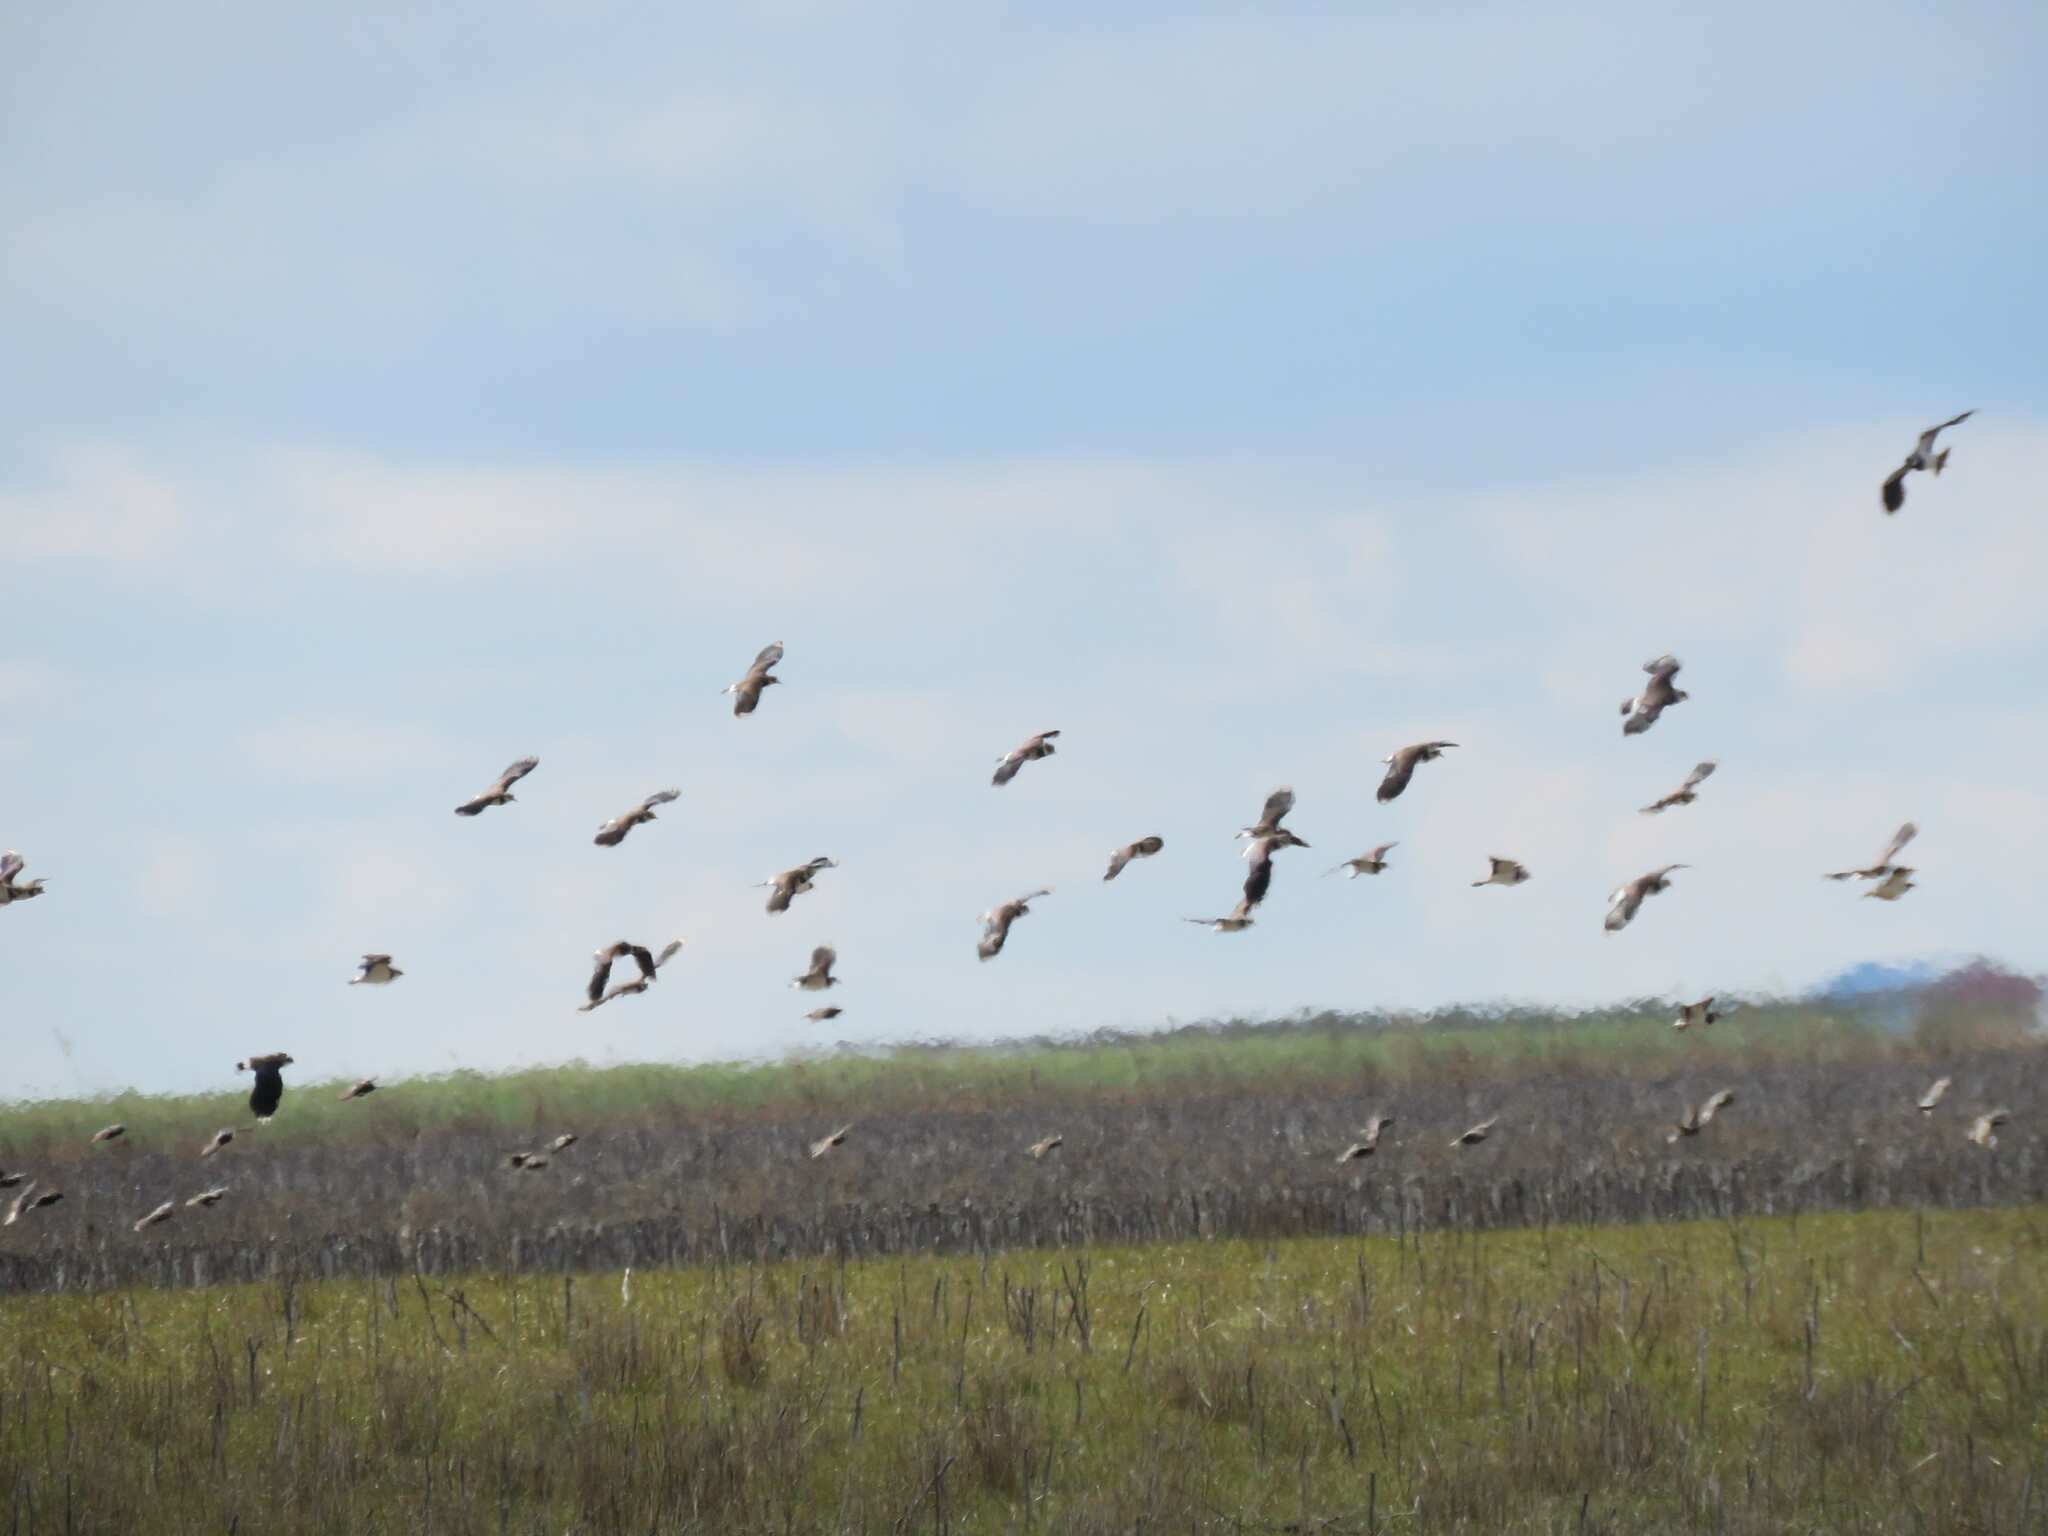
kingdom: Animalia
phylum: Chordata
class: Aves
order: Charadriiformes
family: Charadriidae
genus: Vanellus
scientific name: Vanellus vanellus
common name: Northern lapwing
